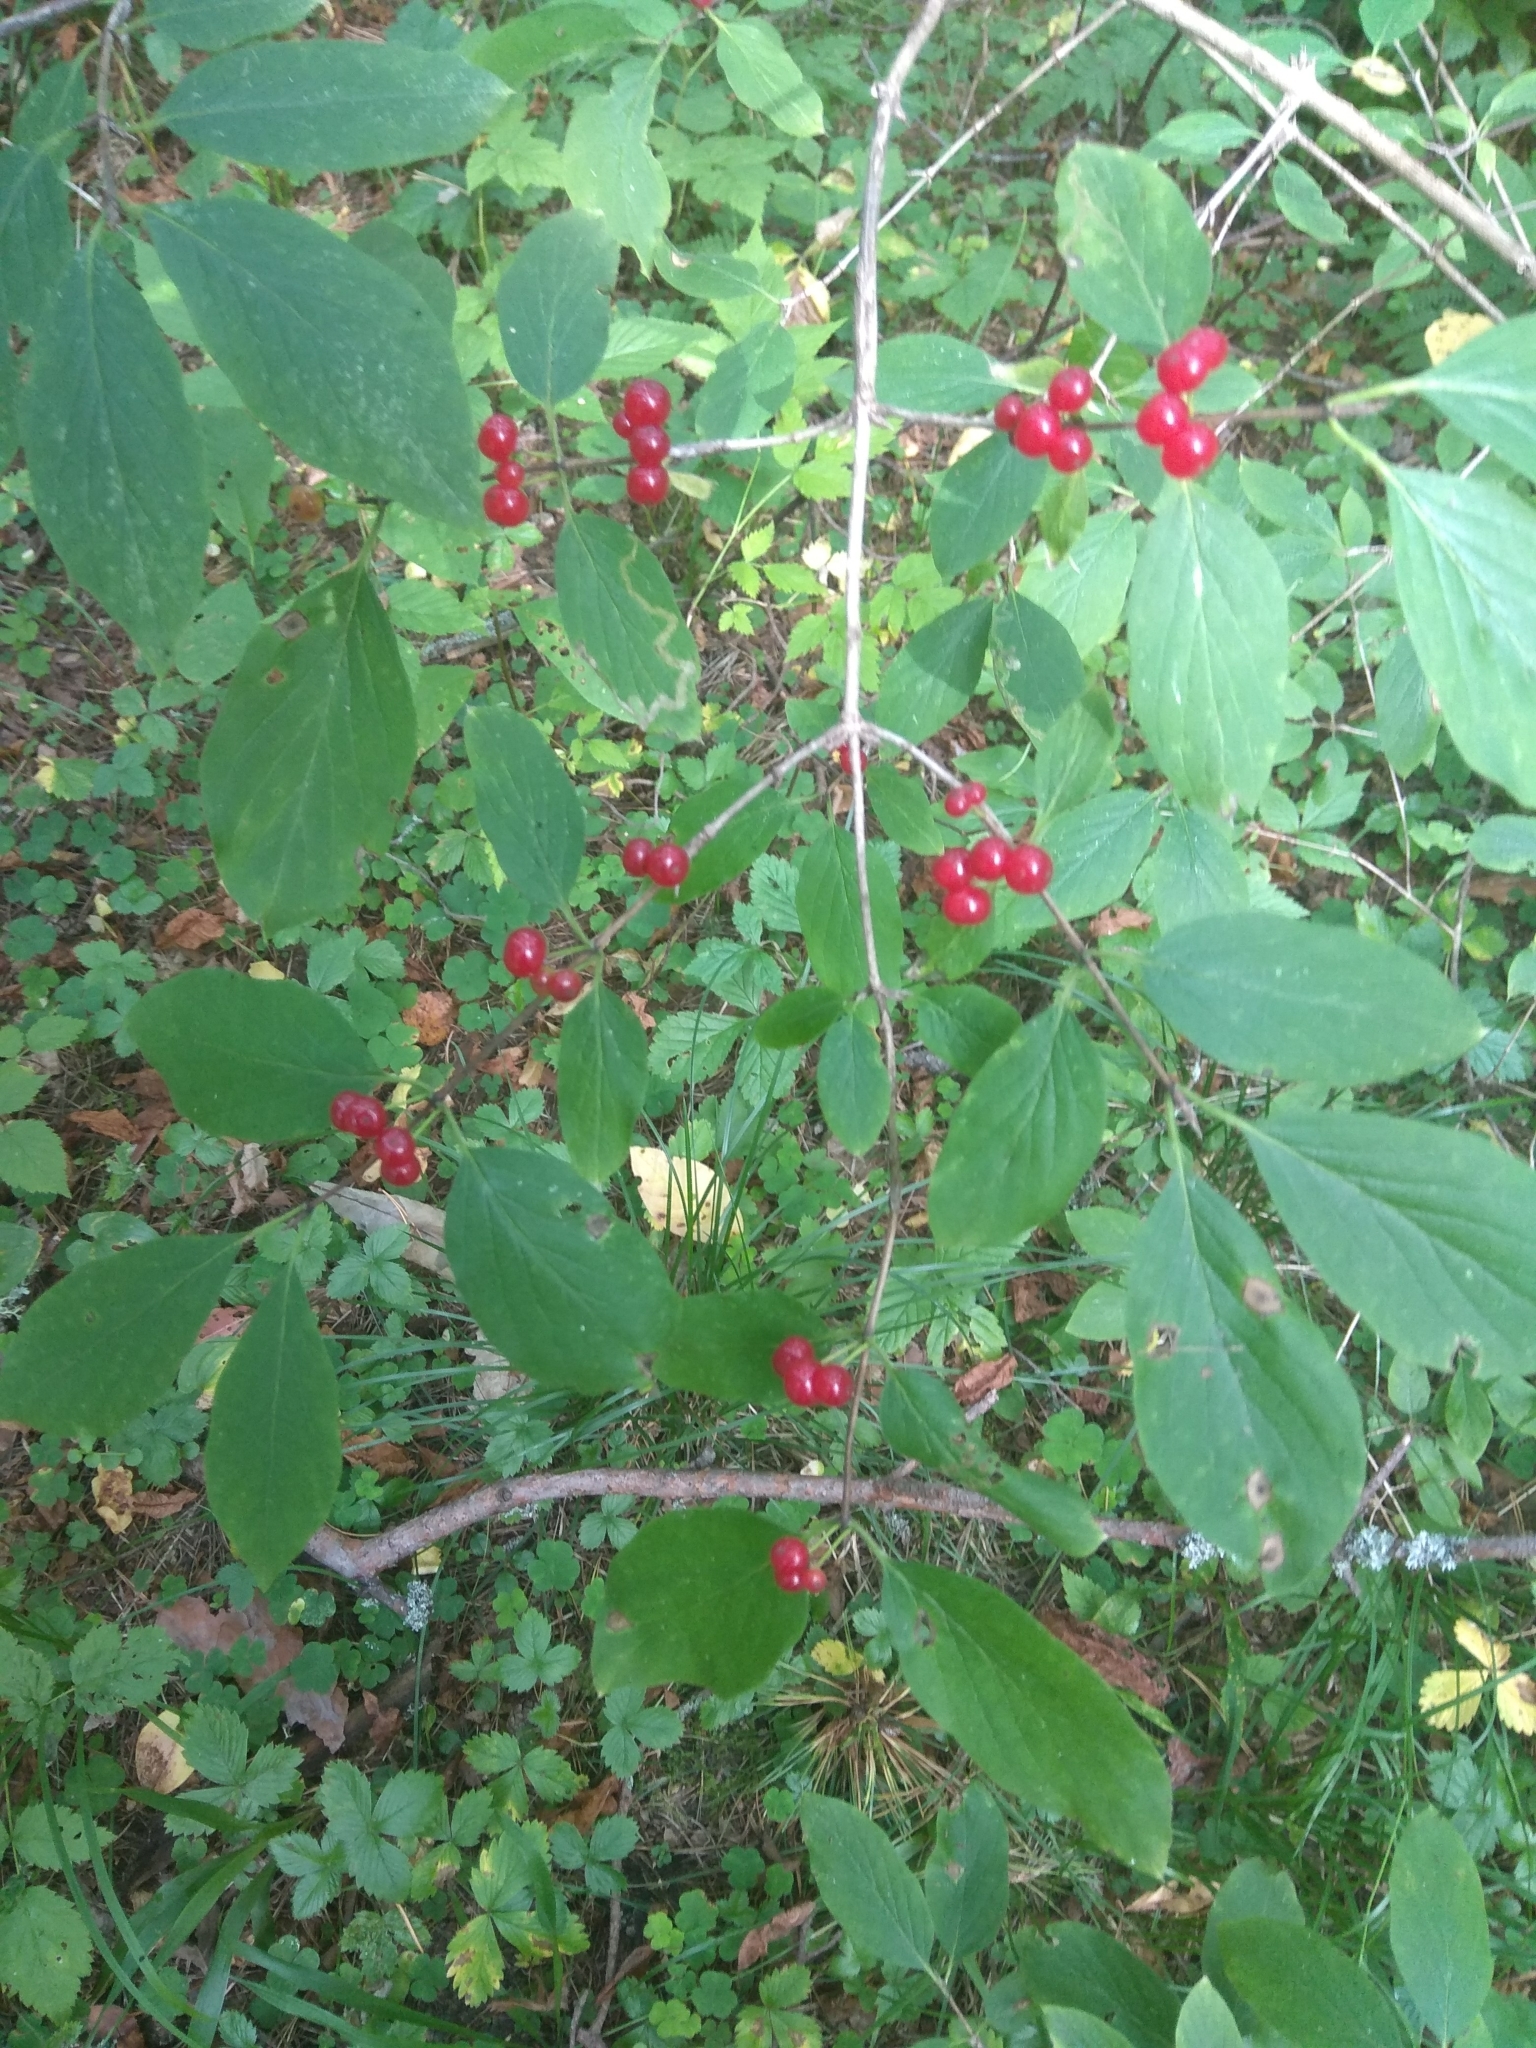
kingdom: Plantae
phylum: Tracheophyta
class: Magnoliopsida
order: Dipsacales
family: Caprifoliaceae
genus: Lonicera
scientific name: Lonicera xylosteum
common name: Fly honeysuckle
